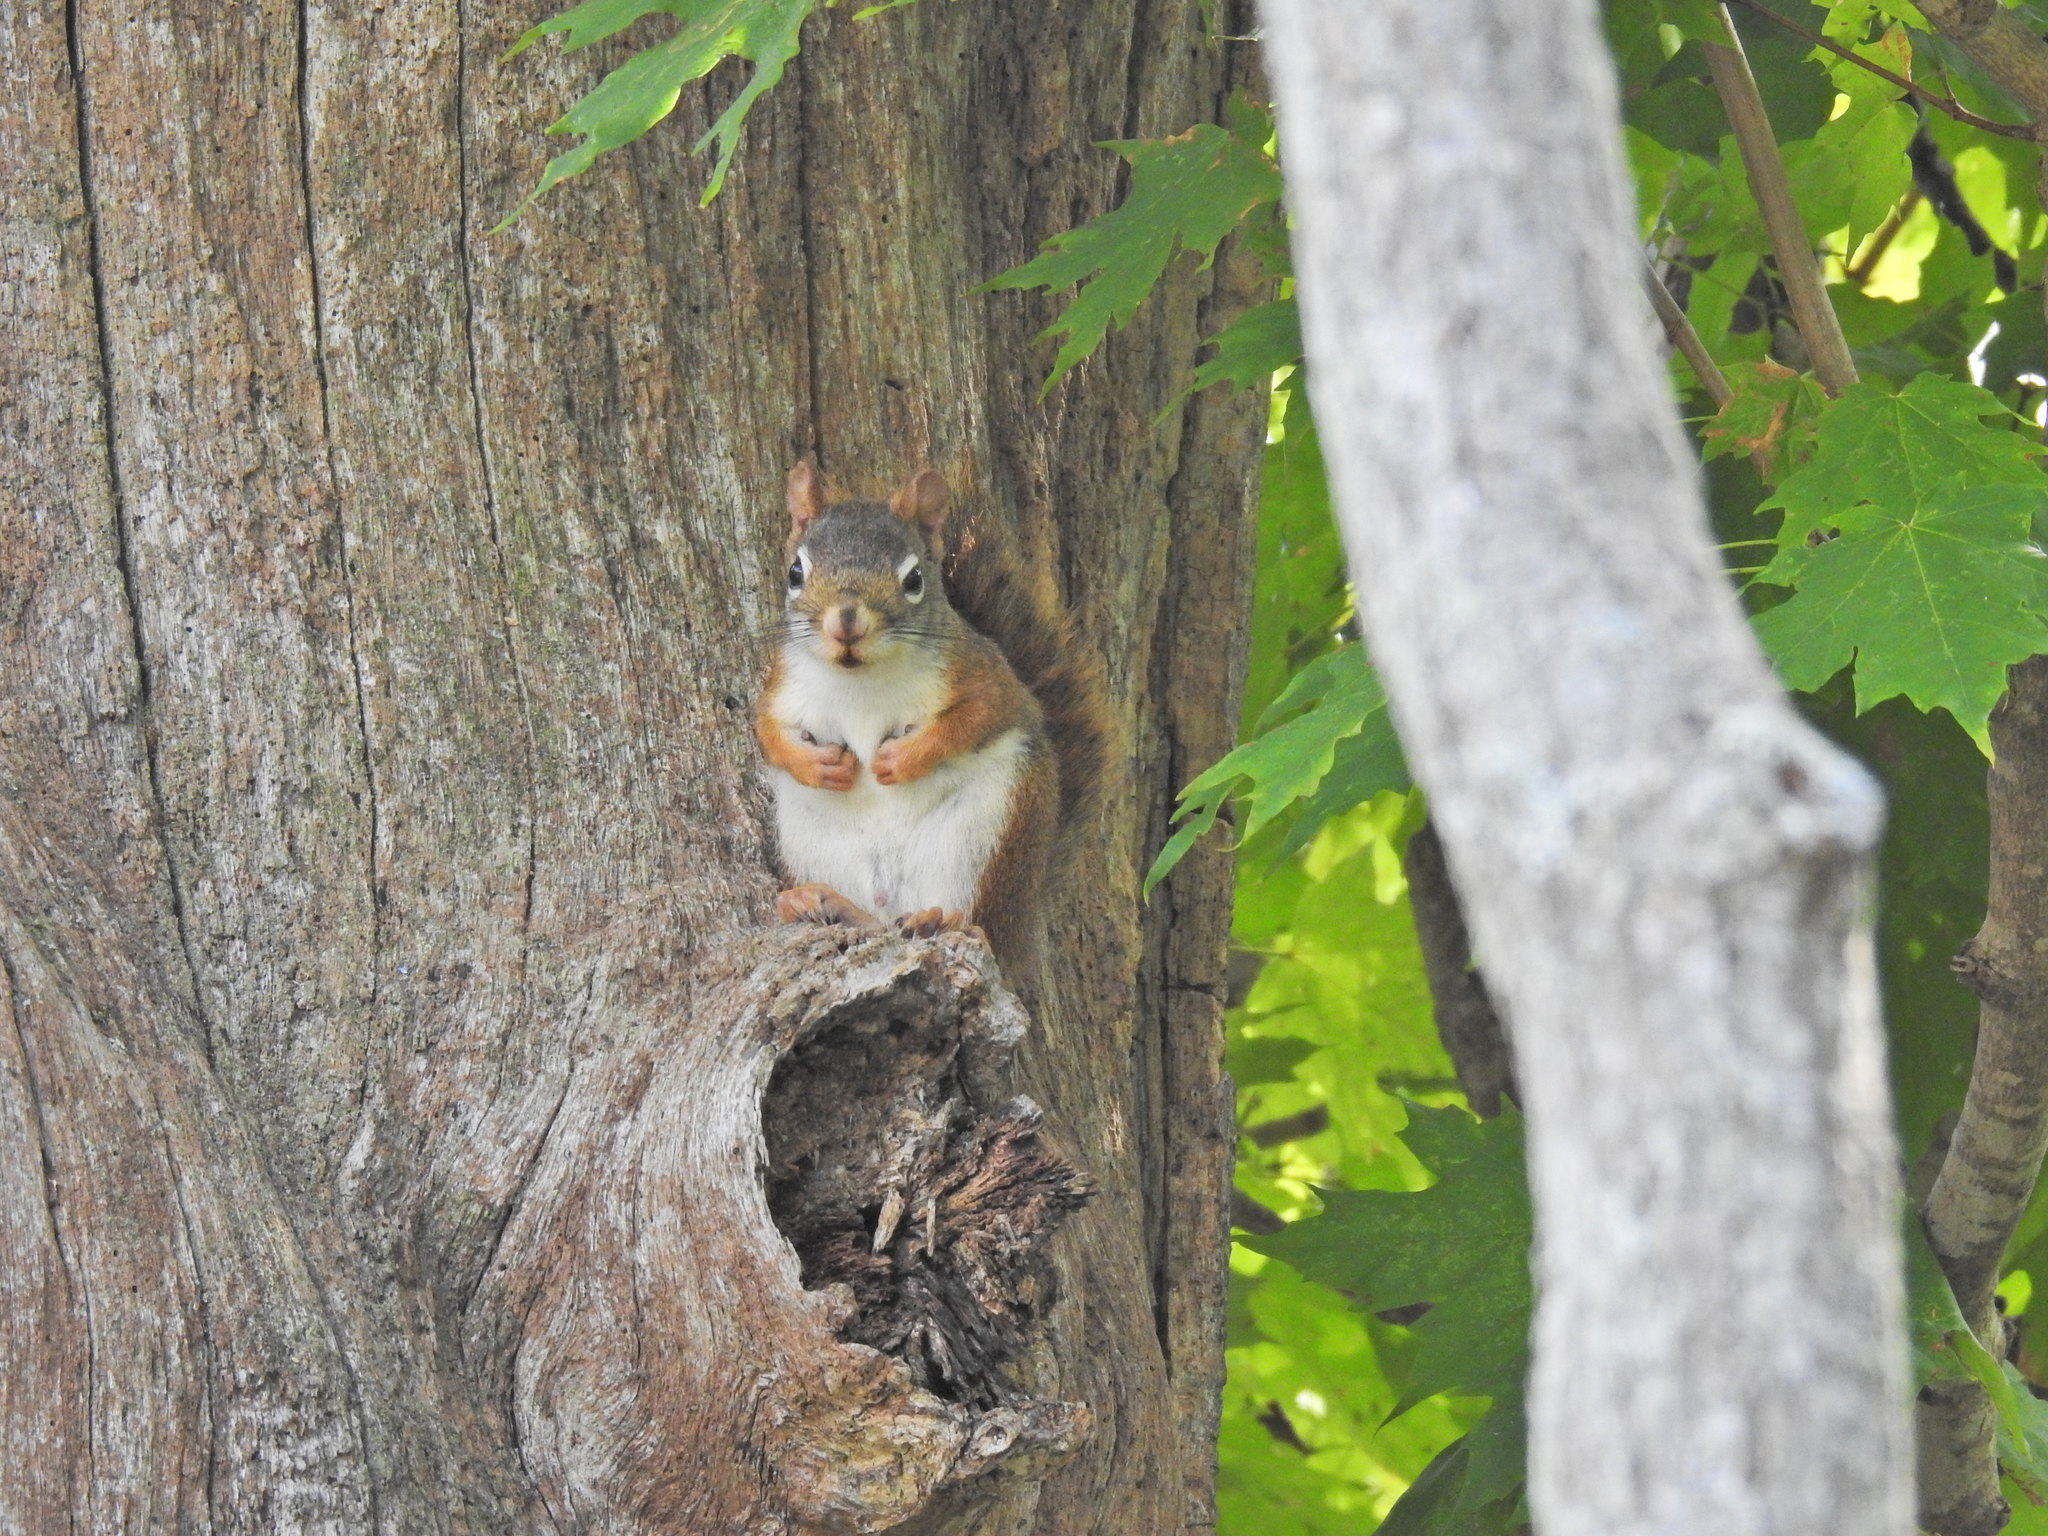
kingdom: Animalia
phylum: Chordata
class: Mammalia
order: Rodentia
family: Sciuridae
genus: Tamiasciurus
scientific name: Tamiasciurus hudsonicus
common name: Red squirrel
